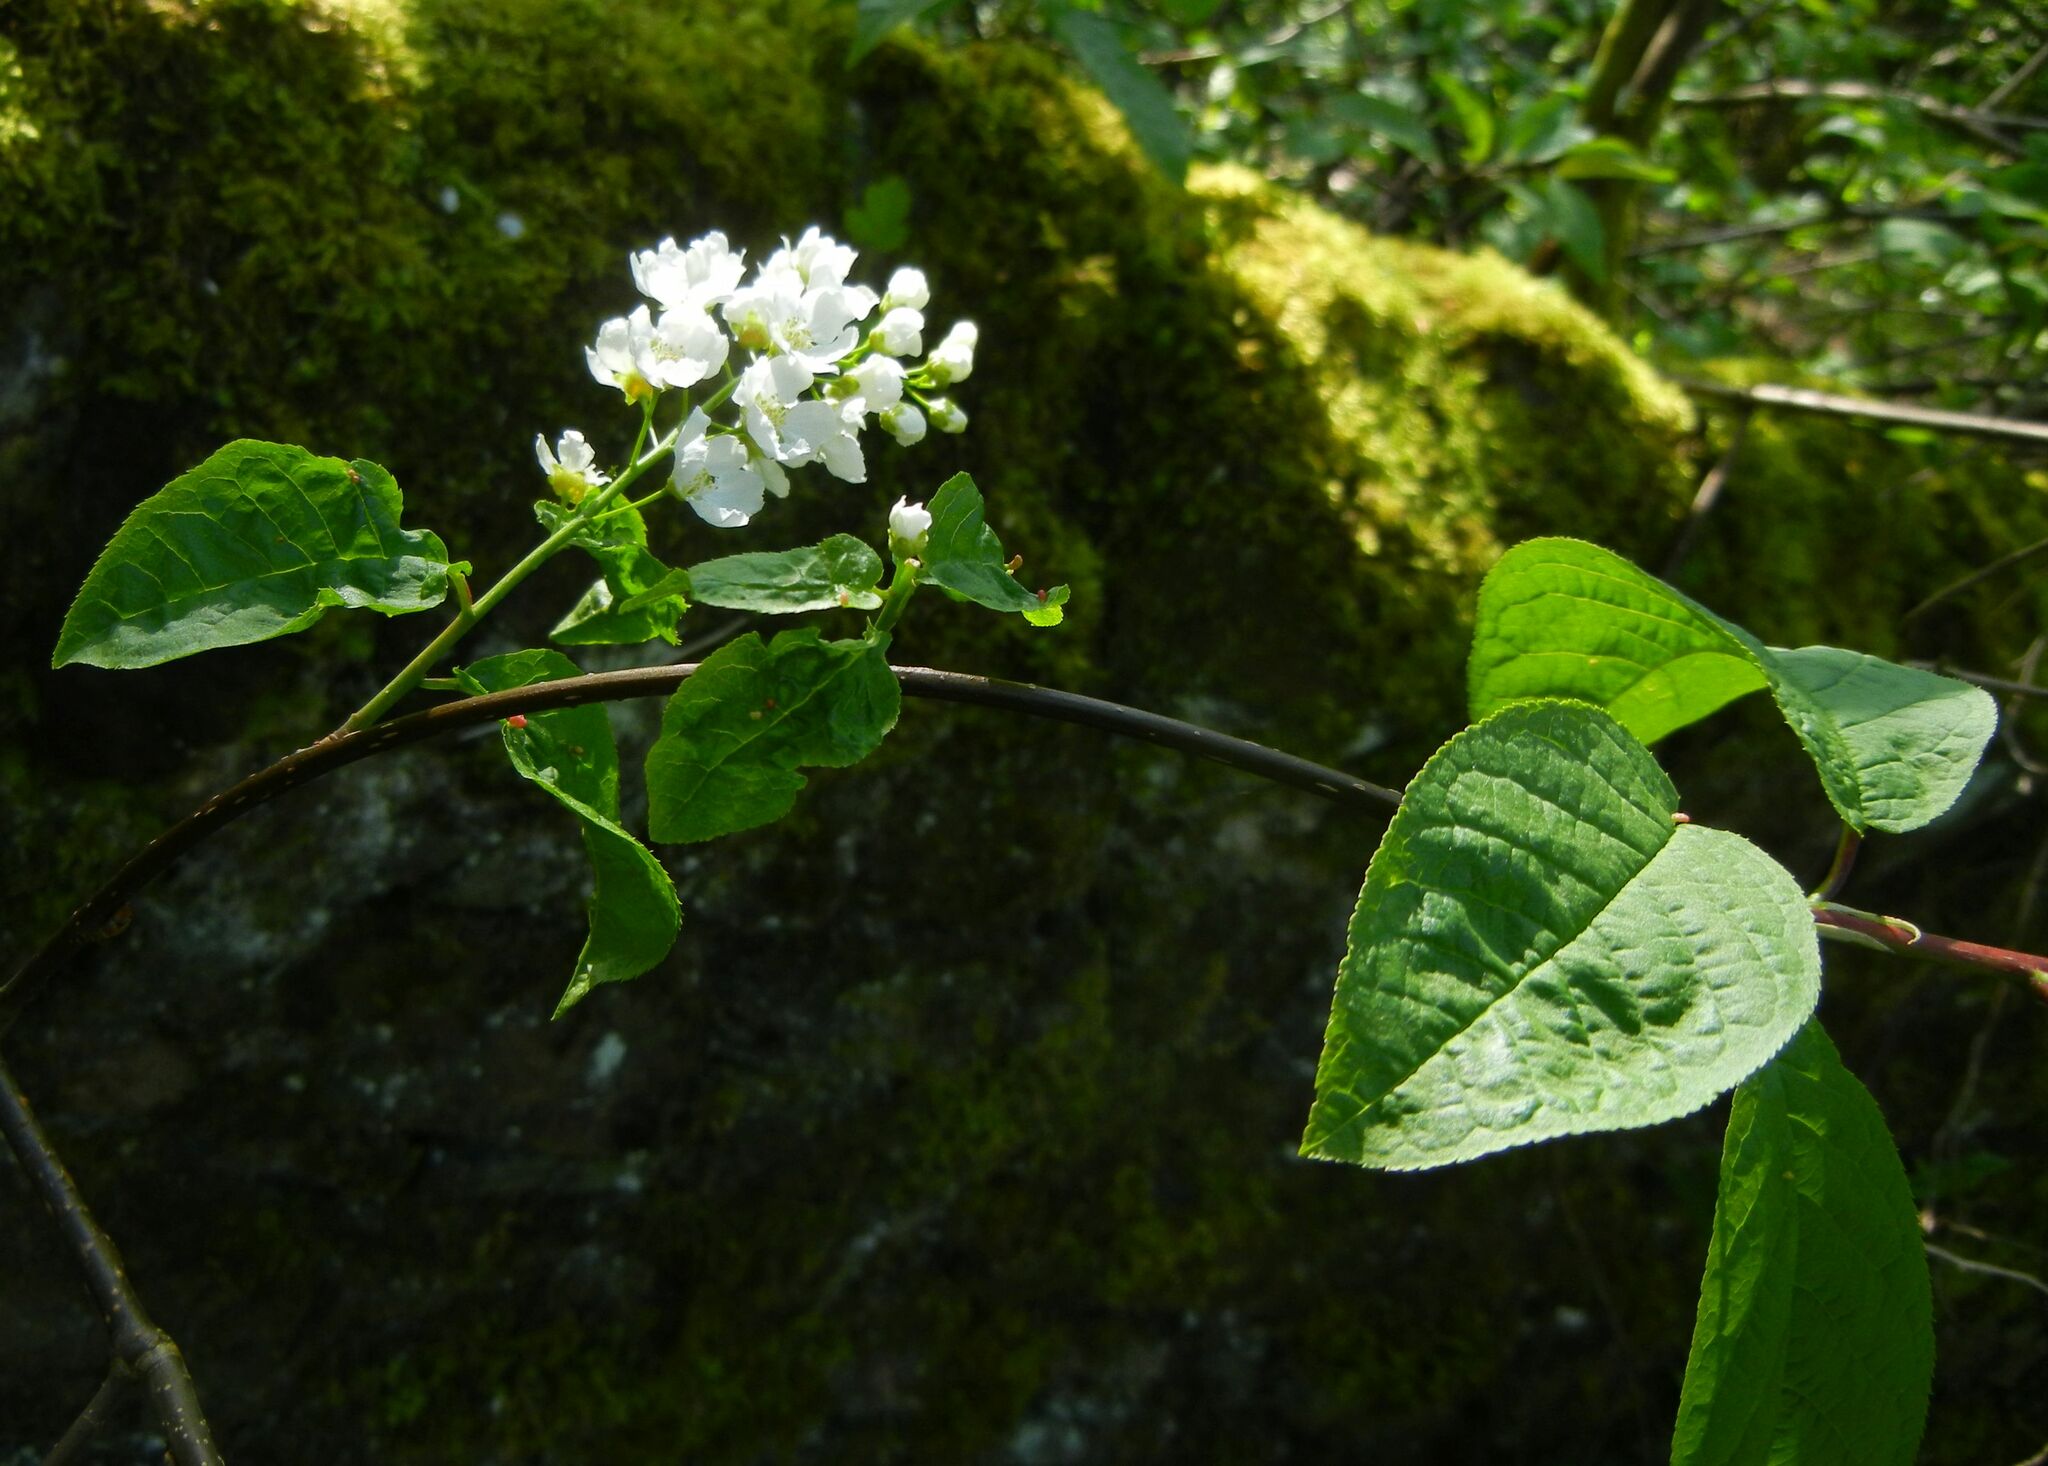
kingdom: Plantae
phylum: Tracheophyta
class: Magnoliopsida
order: Rosales
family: Rosaceae
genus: Prunus
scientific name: Prunus padus
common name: Bird cherry
